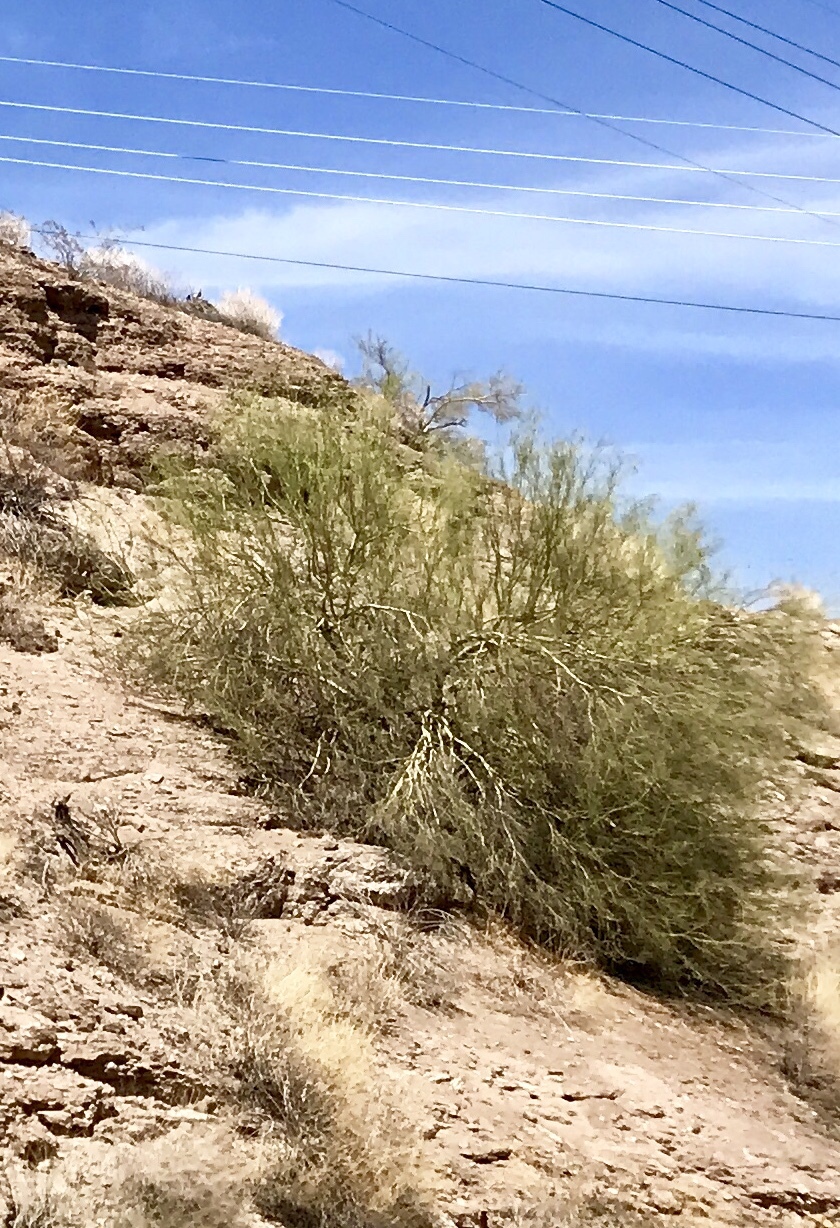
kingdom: Plantae
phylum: Tracheophyta
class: Magnoliopsida
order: Fabales
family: Fabaceae
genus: Parkinsonia
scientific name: Parkinsonia microphylla
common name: Yellow paloverde
